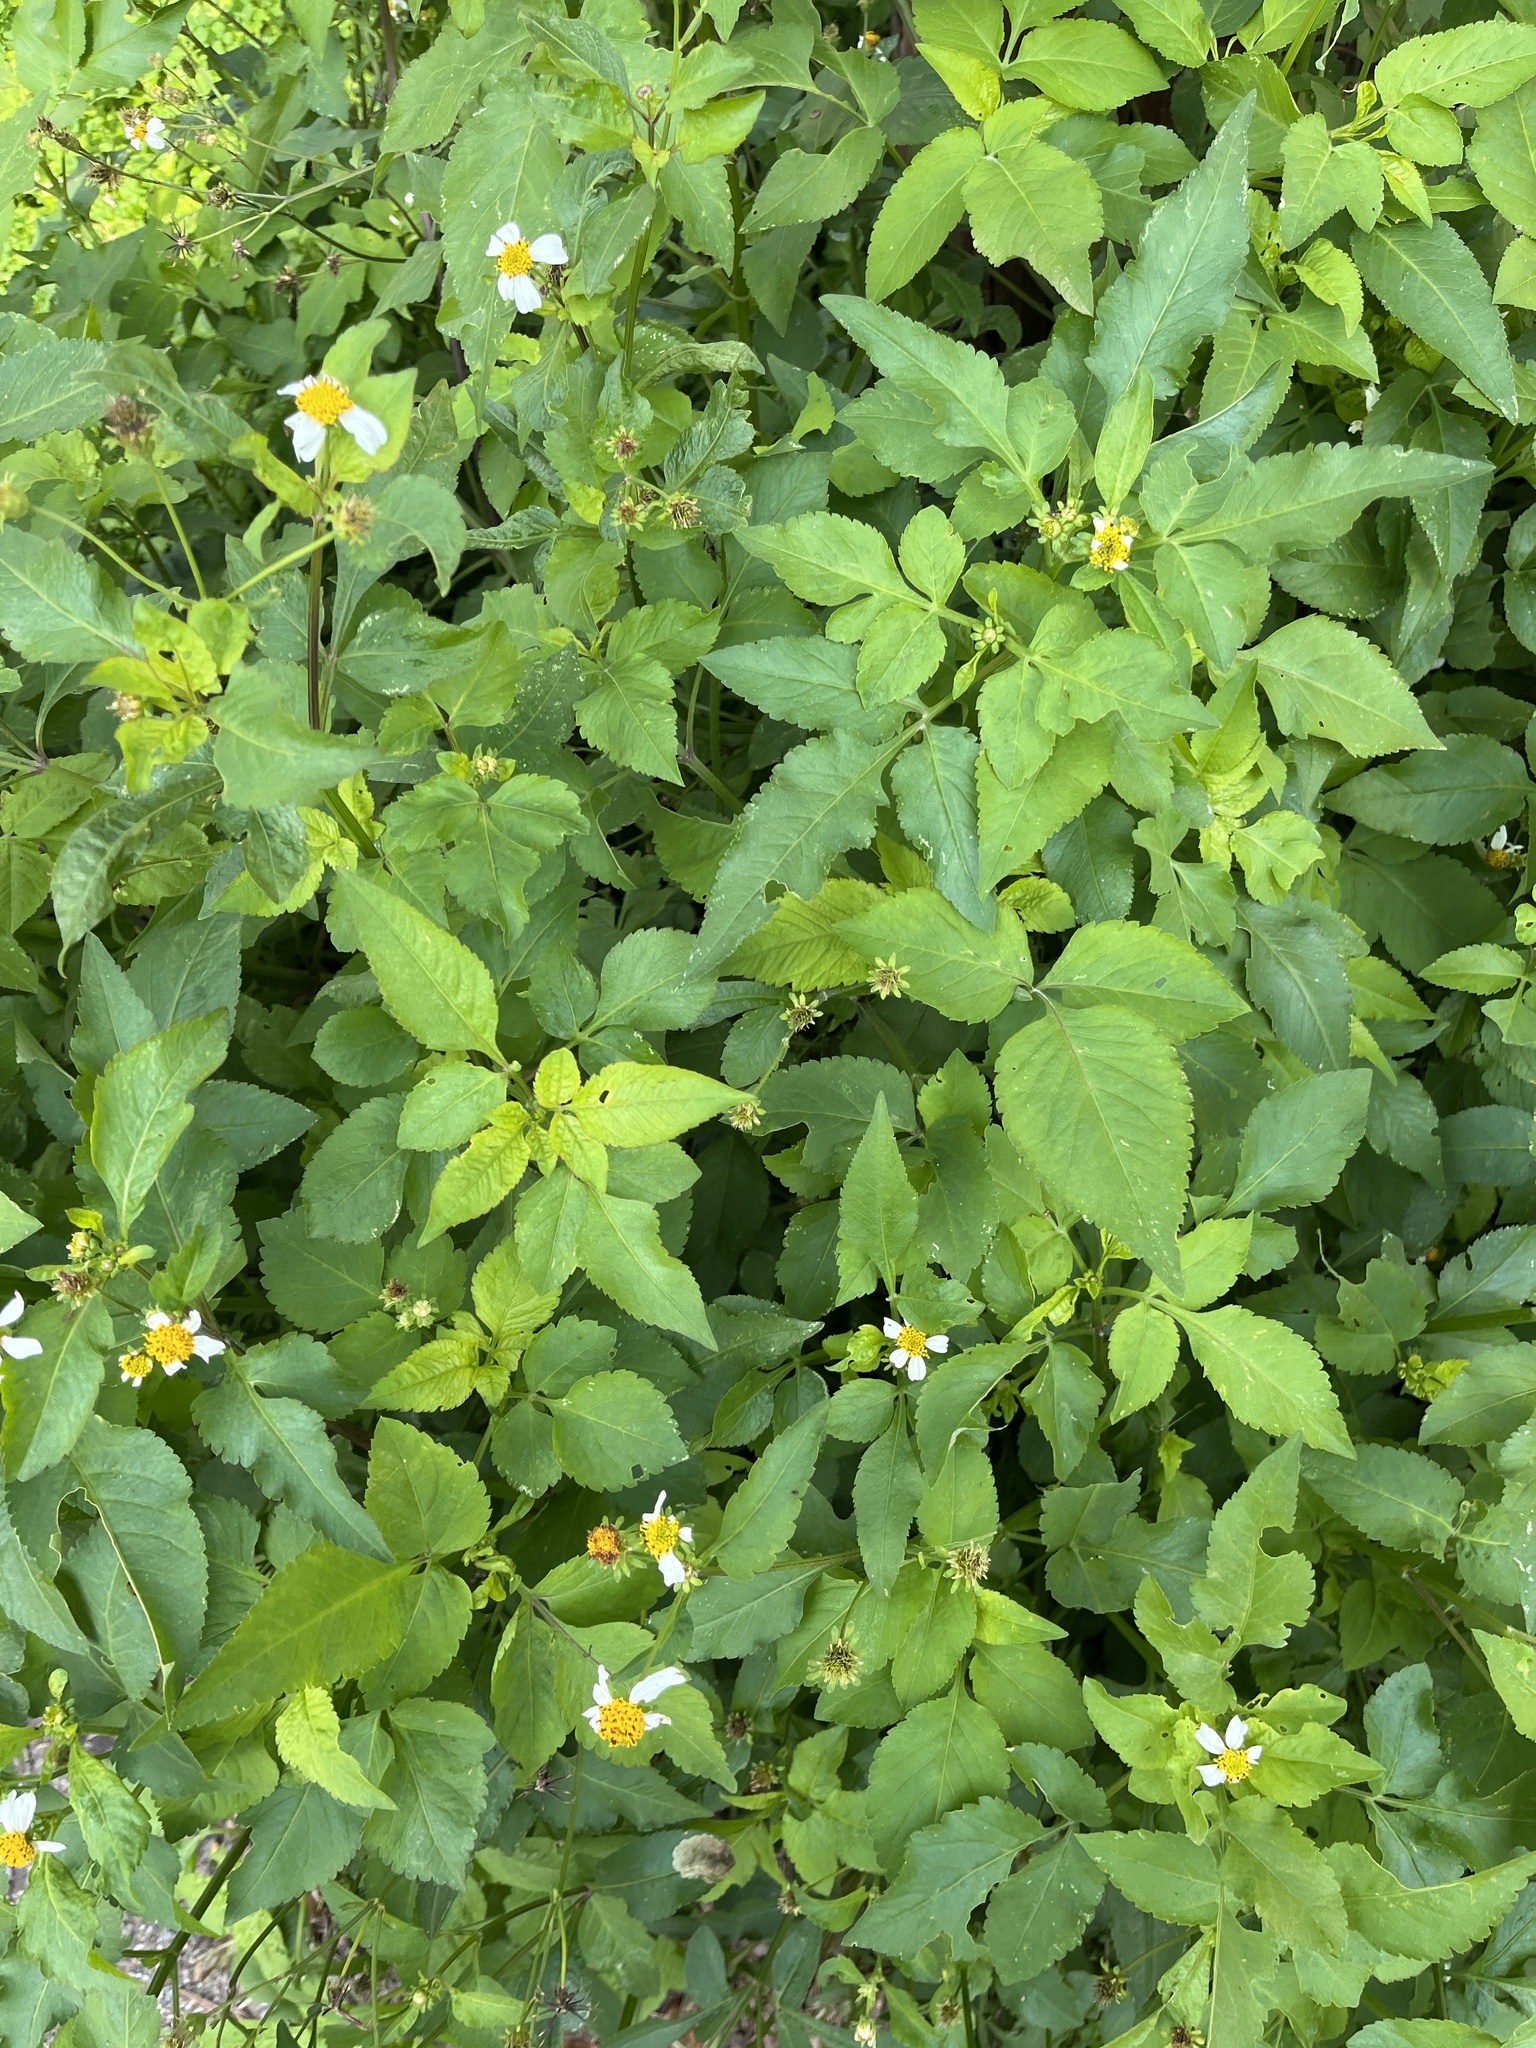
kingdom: Plantae
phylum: Tracheophyta
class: Magnoliopsida
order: Asterales
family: Asteraceae
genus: Bidens
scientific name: Bidens alba
